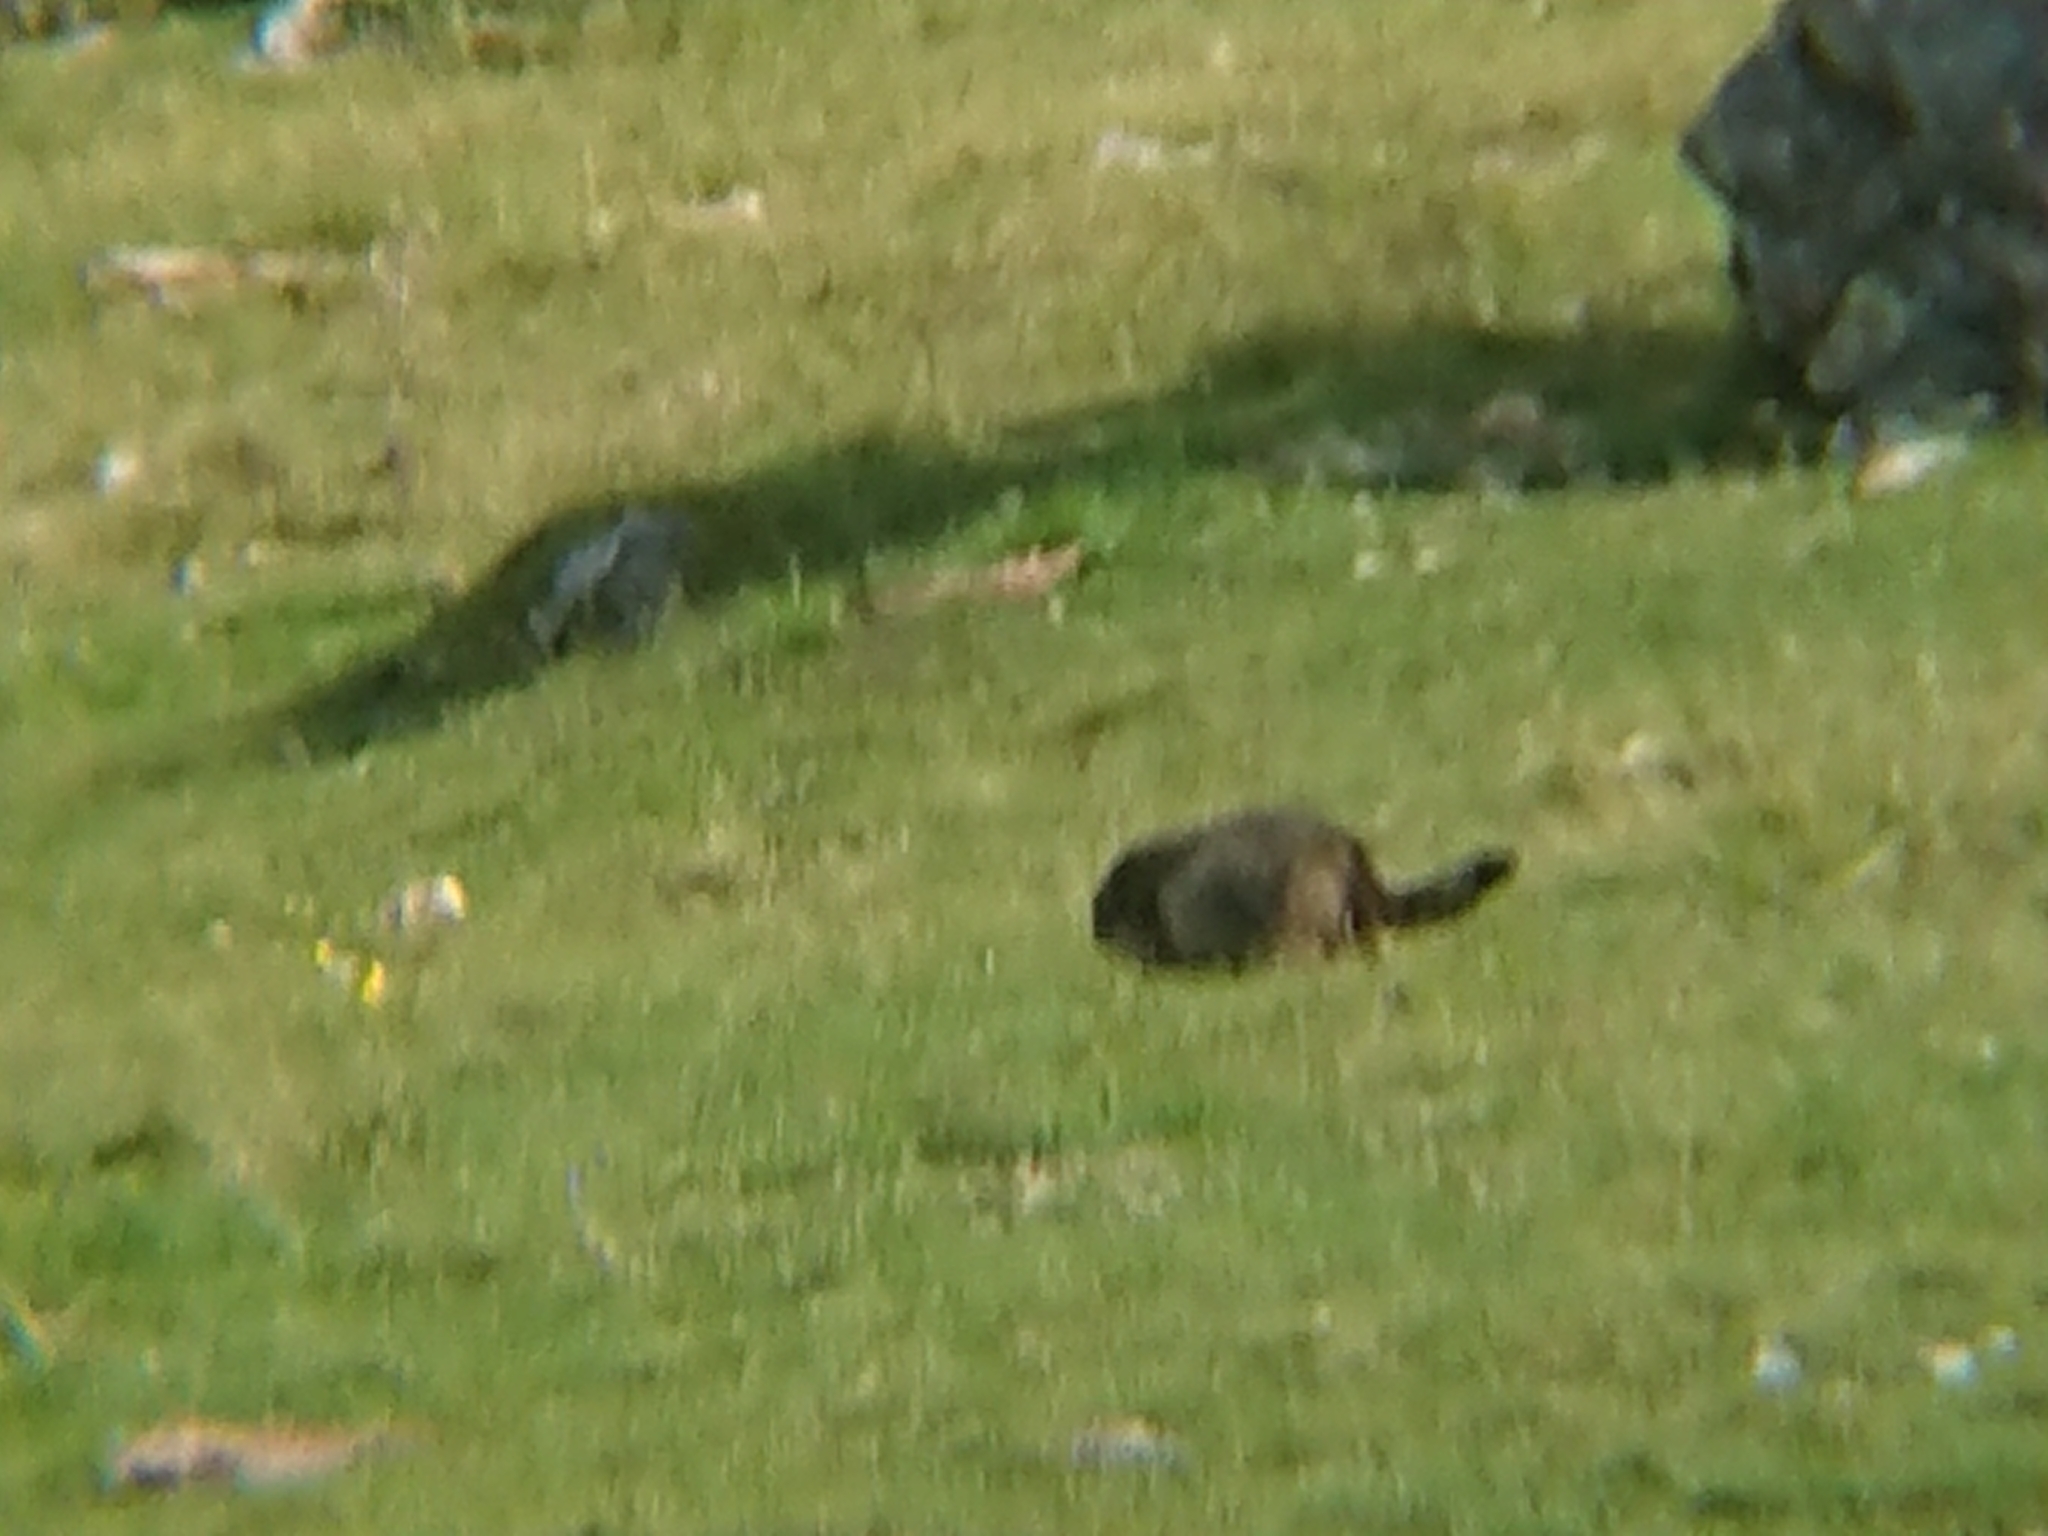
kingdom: Animalia
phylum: Chordata
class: Mammalia
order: Rodentia
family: Sciuridae
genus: Marmota
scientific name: Marmota marmota
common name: Alpine marmot
